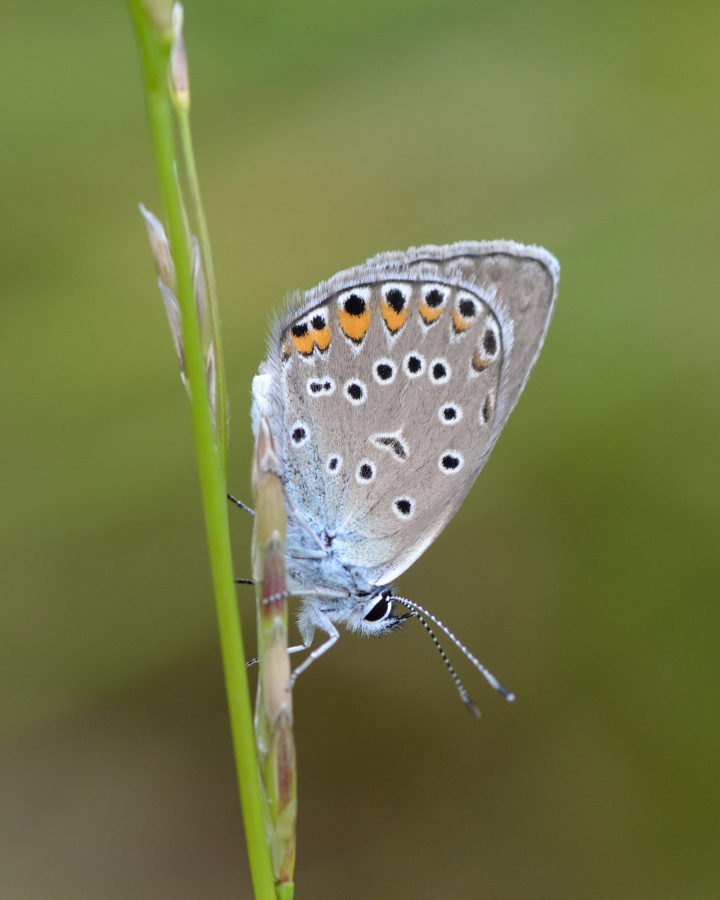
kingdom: Animalia
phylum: Arthropoda
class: Insecta
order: Lepidoptera
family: Lycaenidae
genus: Plebejus
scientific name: Plebejus amanda
